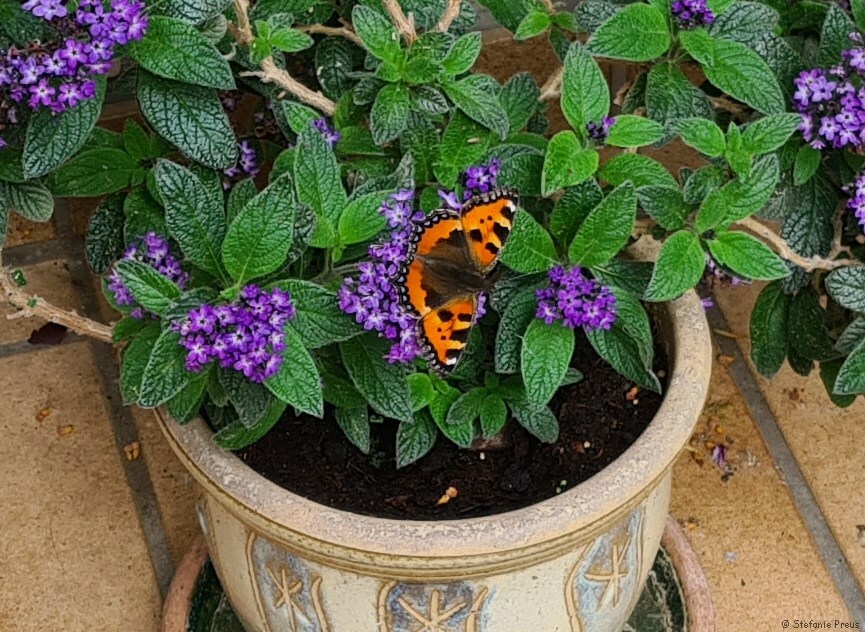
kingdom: Animalia
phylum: Arthropoda
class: Insecta
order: Lepidoptera
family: Nymphalidae
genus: Aglais
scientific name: Aglais urticae
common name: Small tortoiseshell
